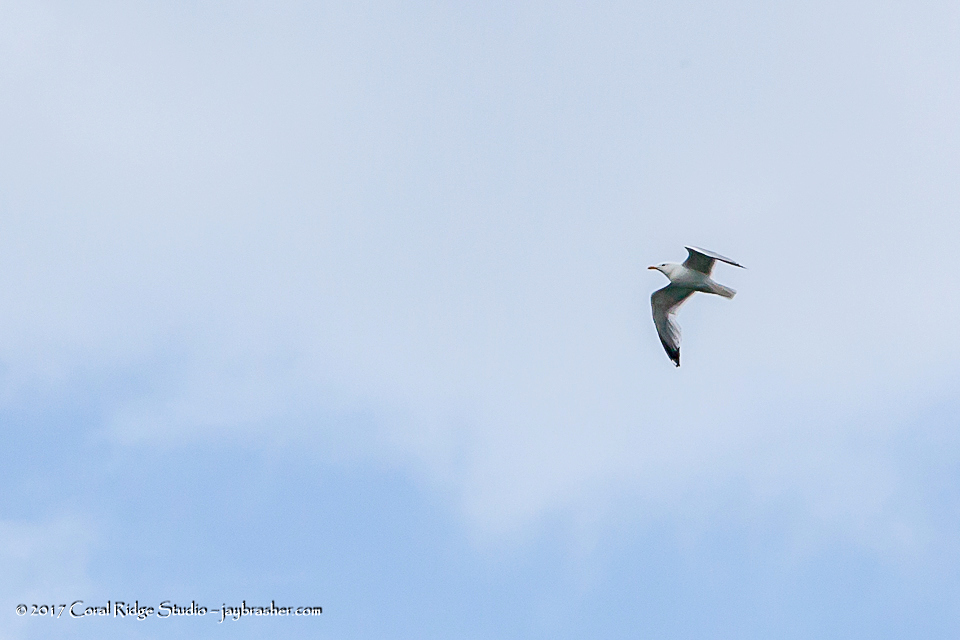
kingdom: Animalia
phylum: Chordata
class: Aves
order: Charadriiformes
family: Laridae
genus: Larus
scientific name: Larus argentatus
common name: Herring gull
